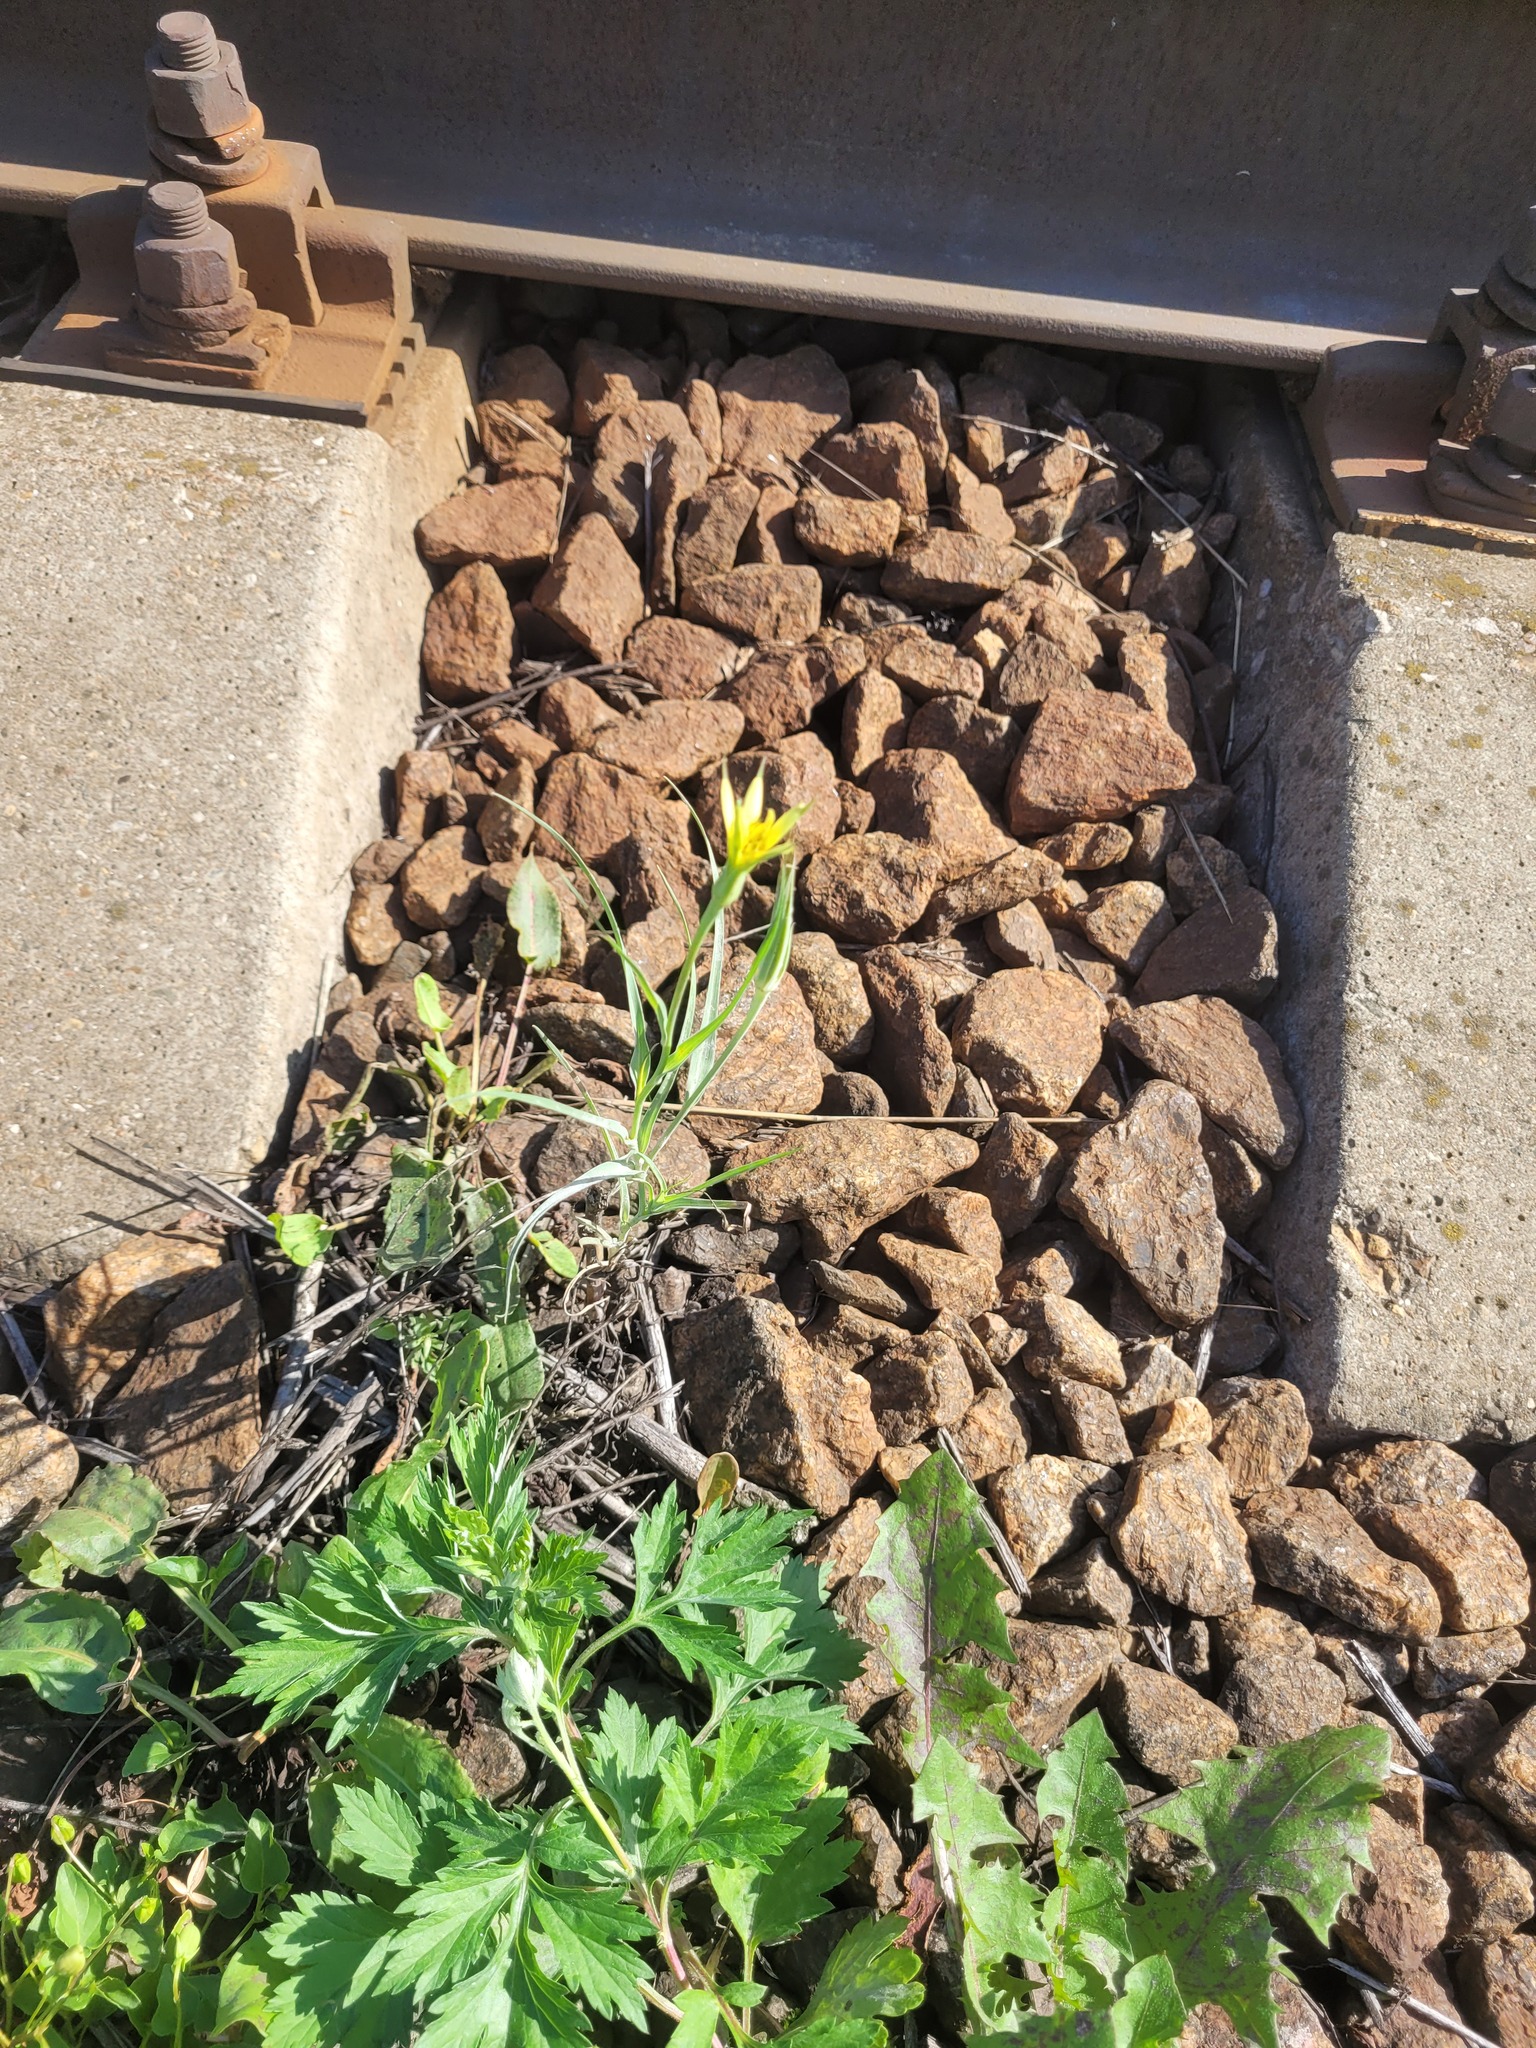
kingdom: Plantae
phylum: Tracheophyta
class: Magnoliopsida
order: Asterales
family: Asteraceae
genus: Tragopogon
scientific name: Tragopogon dubius
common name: Yellow salsify
